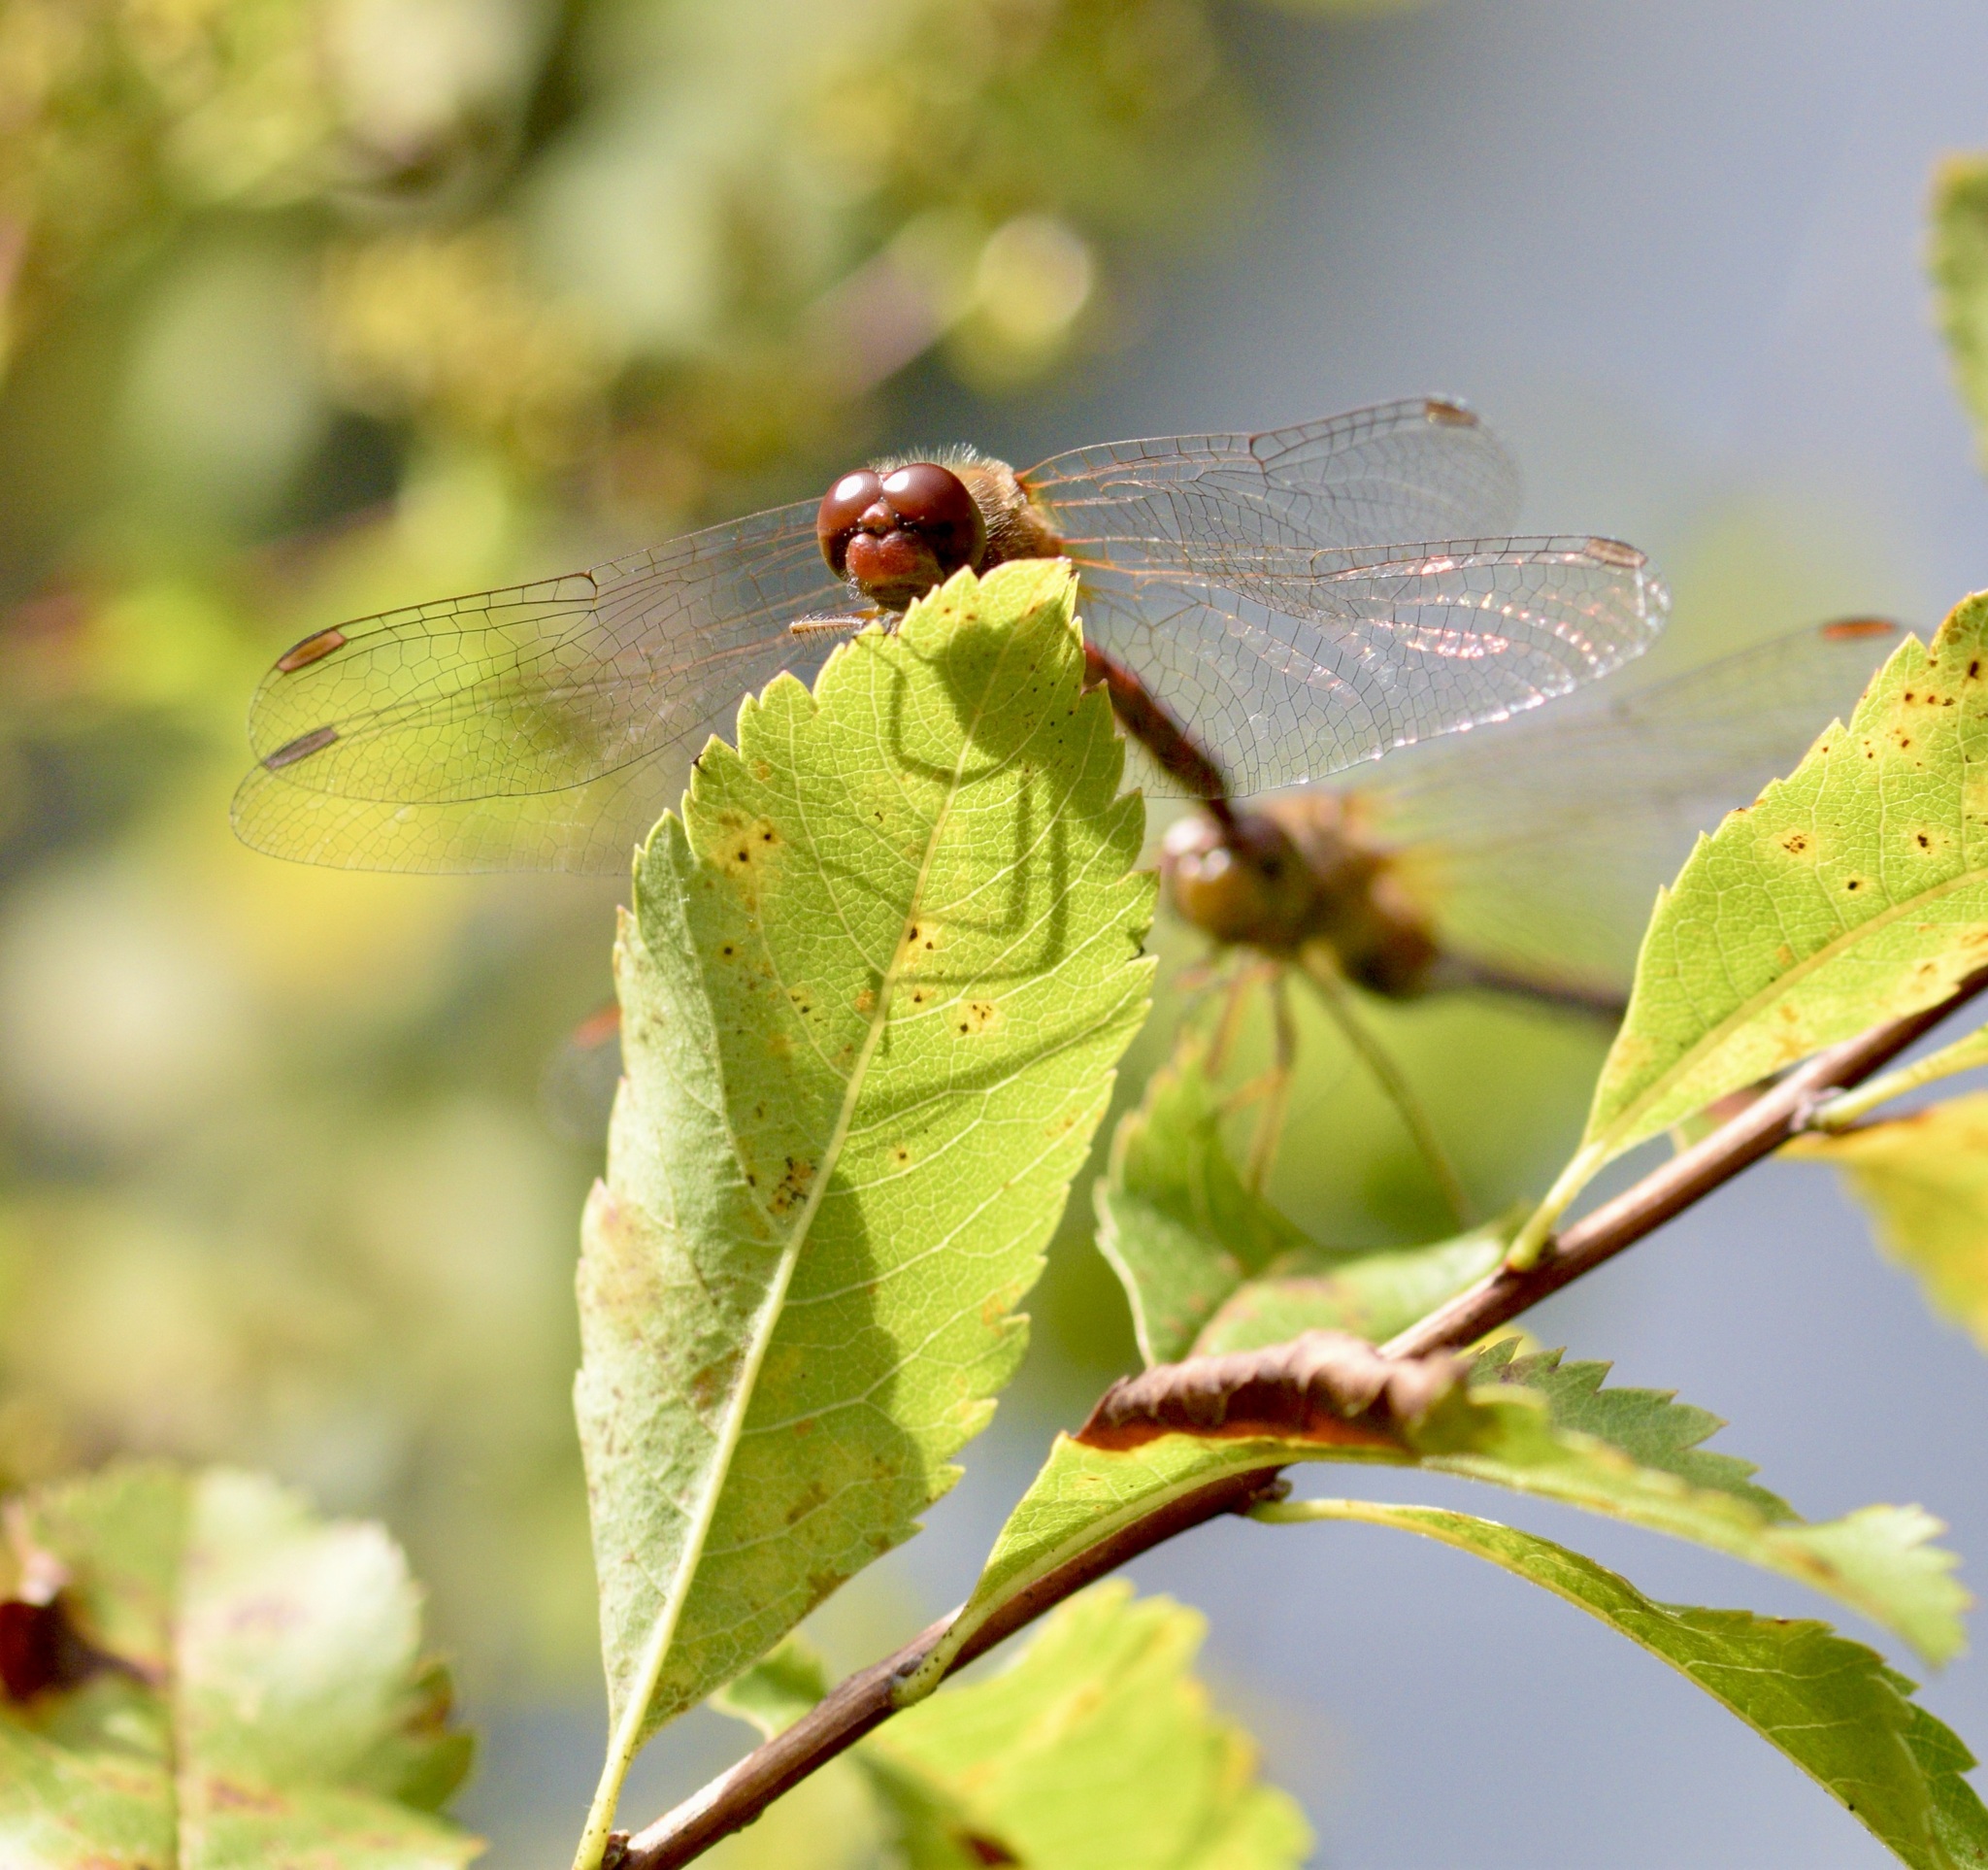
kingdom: Animalia
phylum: Arthropoda
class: Insecta
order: Odonata
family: Libellulidae
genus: Sympetrum
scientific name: Sympetrum vicinum
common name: Autumn meadowhawk
